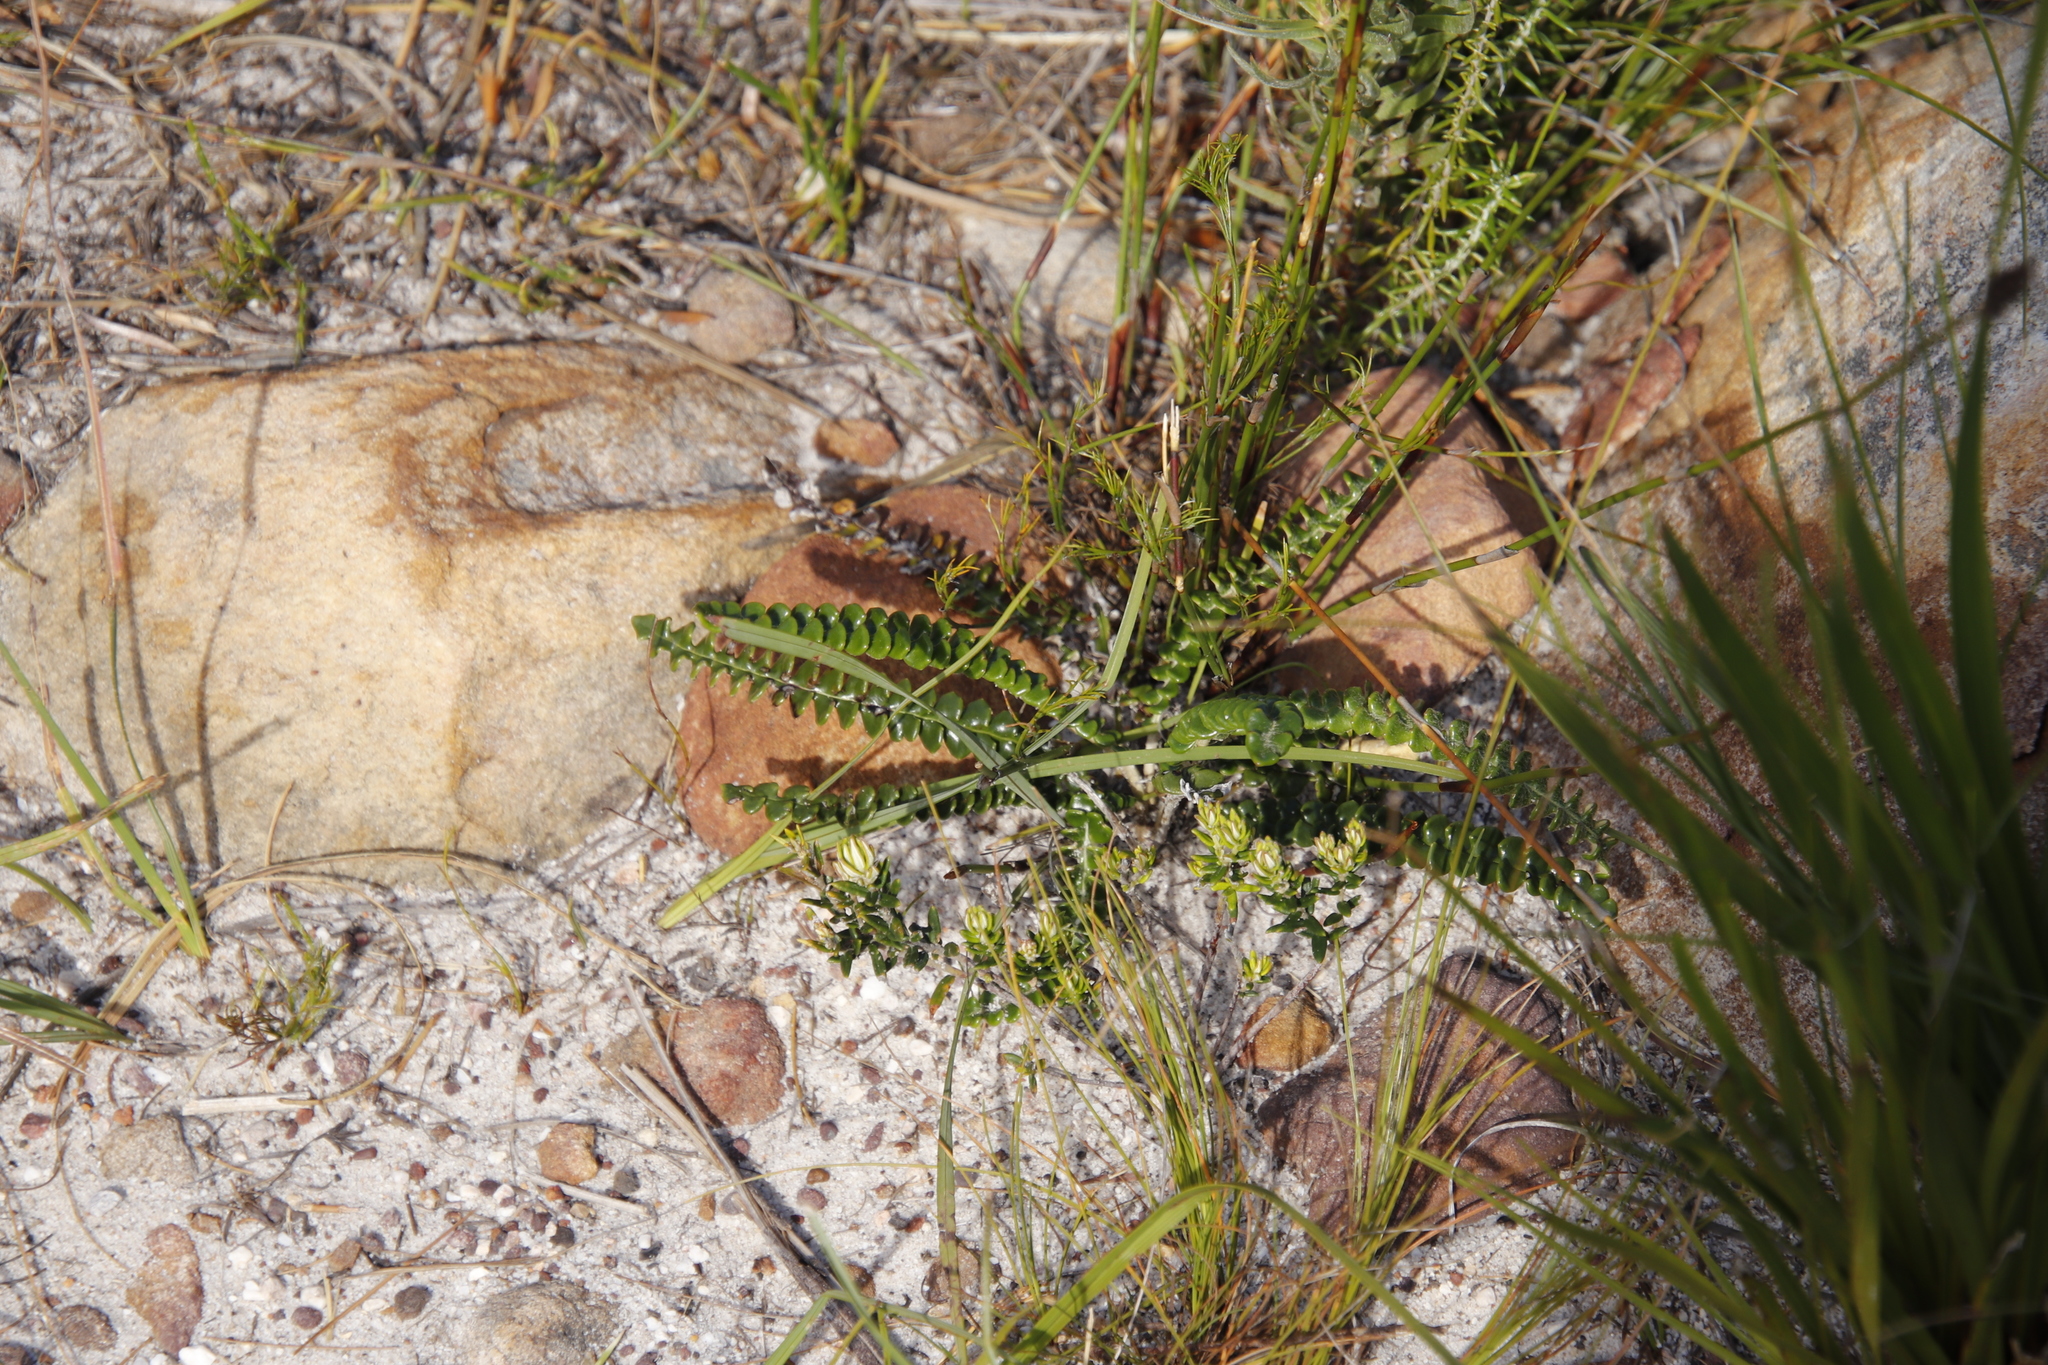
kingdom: Plantae
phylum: Tracheophyta
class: Magnoliopsida
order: Asterales
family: Asteraceae
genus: Gerbera
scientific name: Gerbera linnaei
